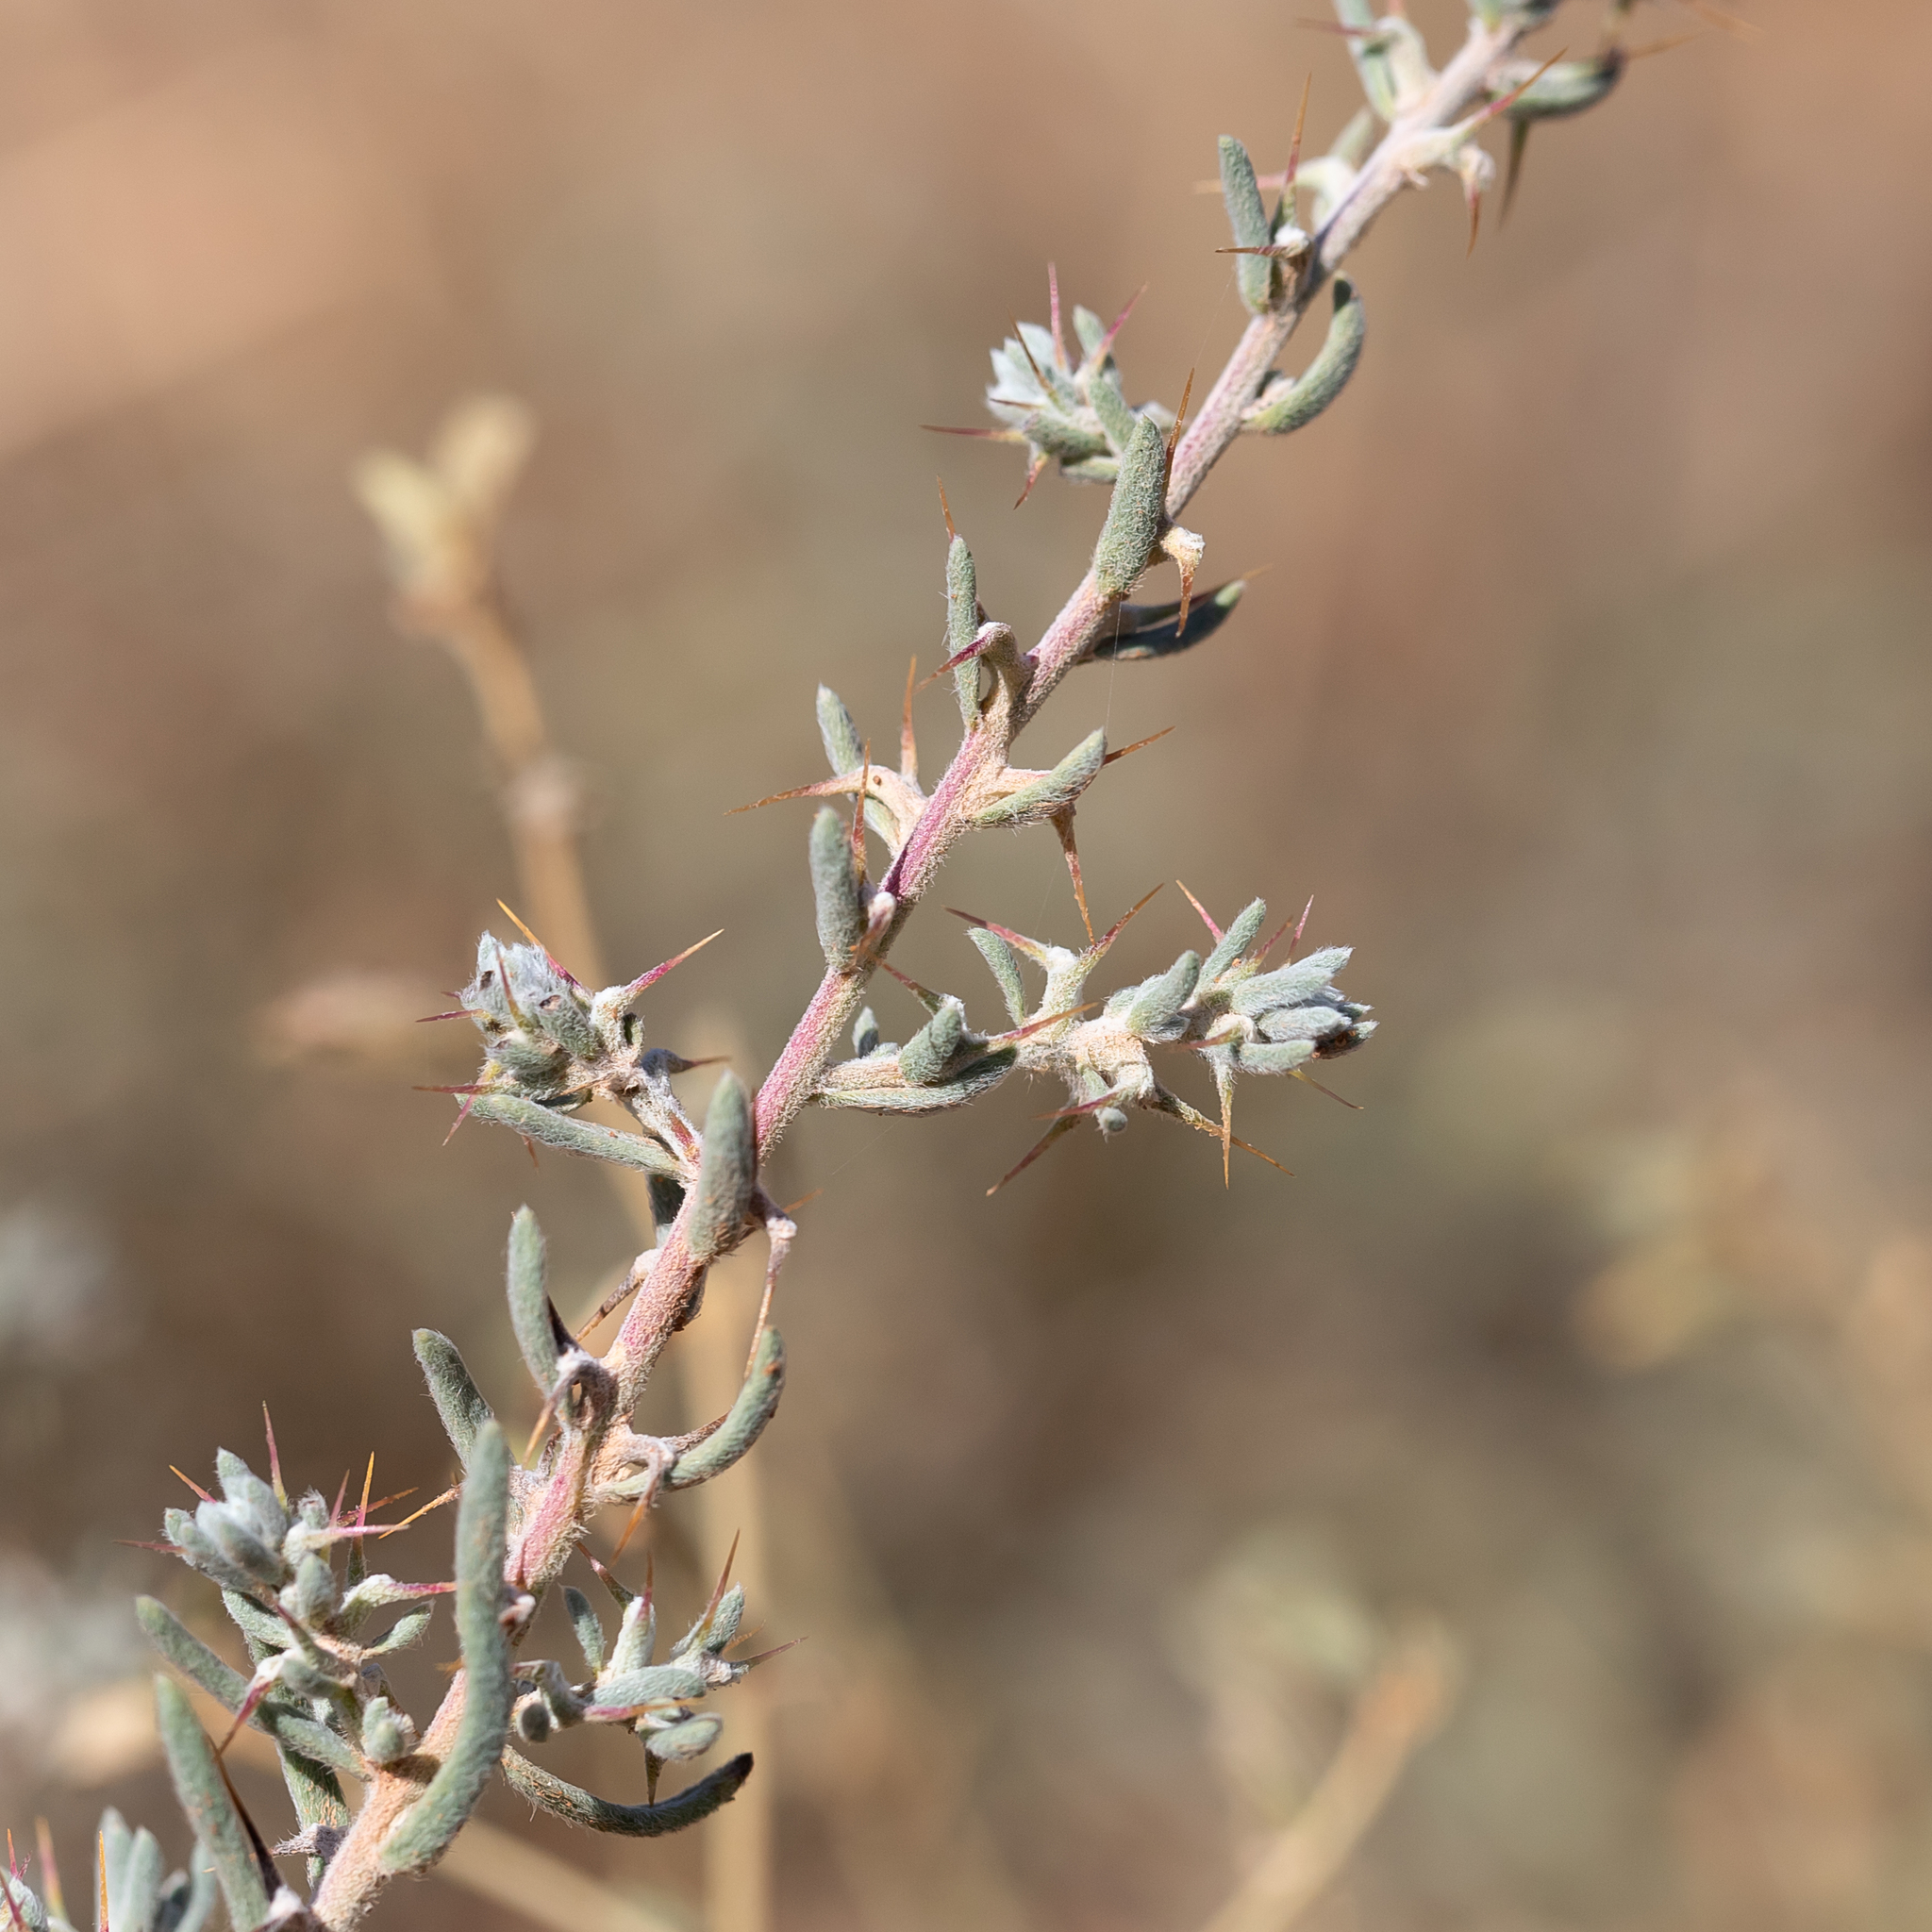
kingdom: Plantae
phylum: Tracheophyta
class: Magnoliopsida
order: Caryophyllales
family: Amaranthaceae
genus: Sclerolaena
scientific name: Sclerolaena obliquicuspis
